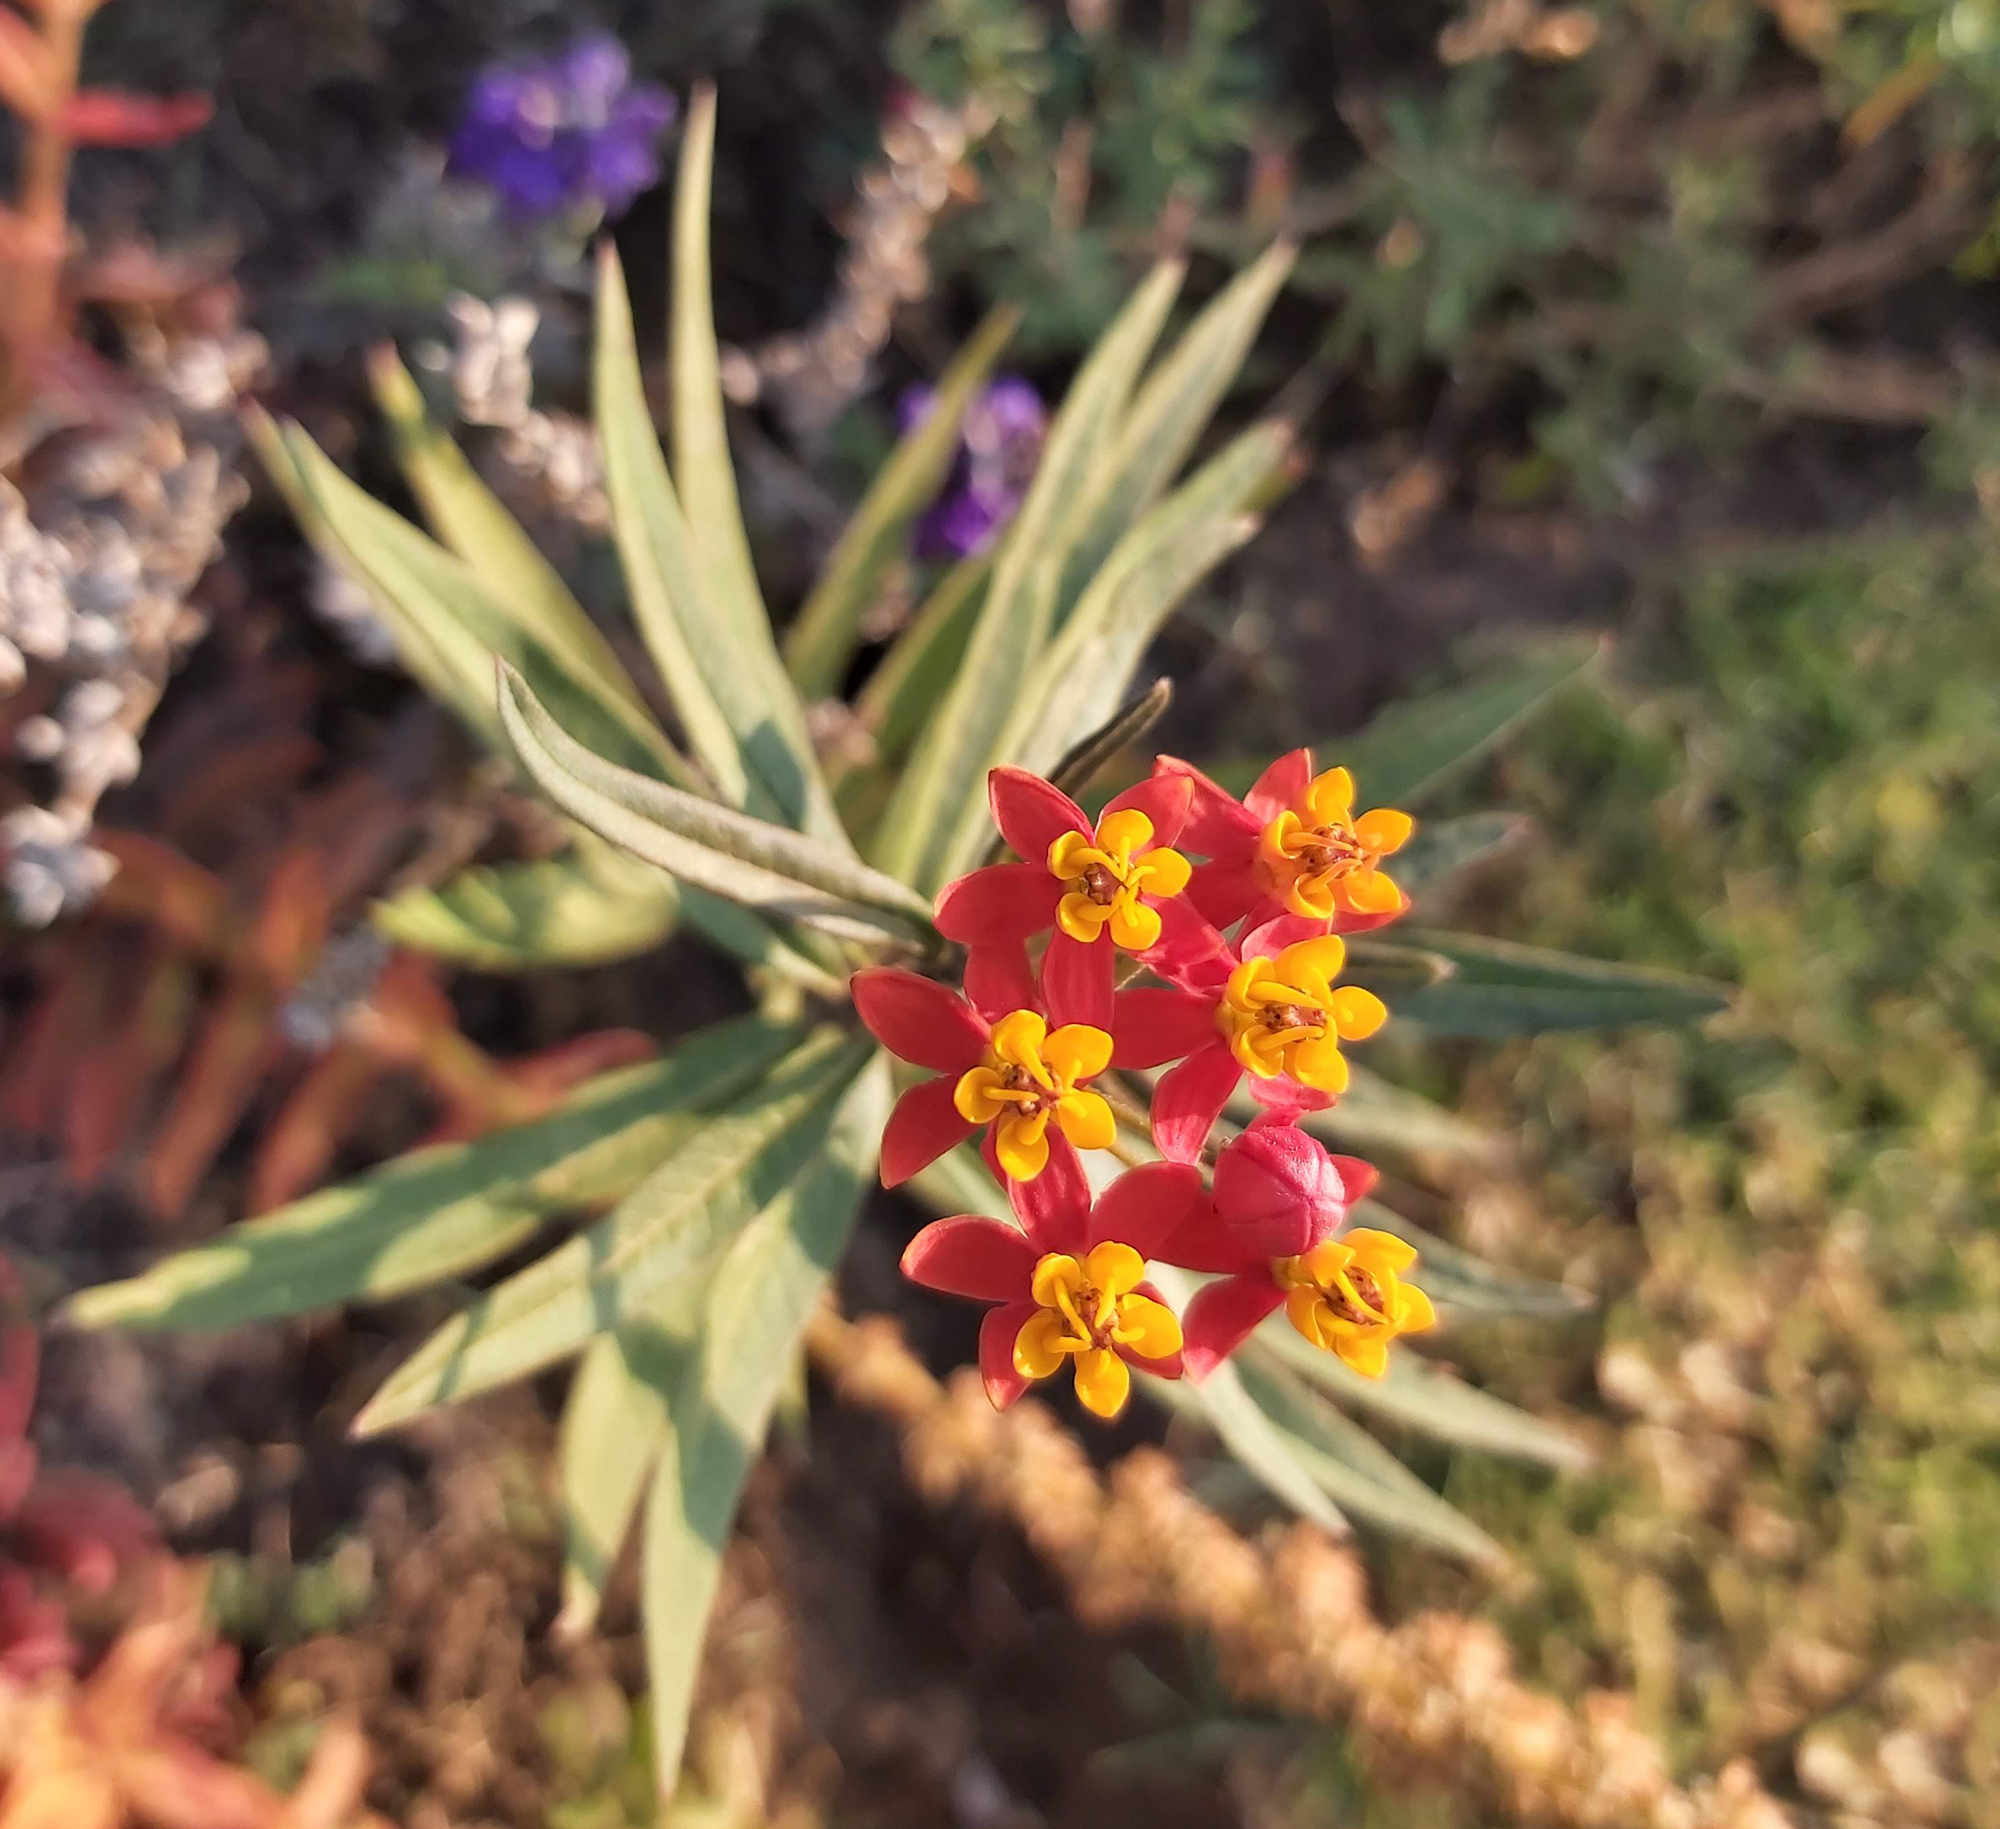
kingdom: Plantae
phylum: Tracheophyta
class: Magnoliopsida
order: Gentianales
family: Apocynaceae
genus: Asclepias
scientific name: Asclepias curassavica
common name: Bloodflower
